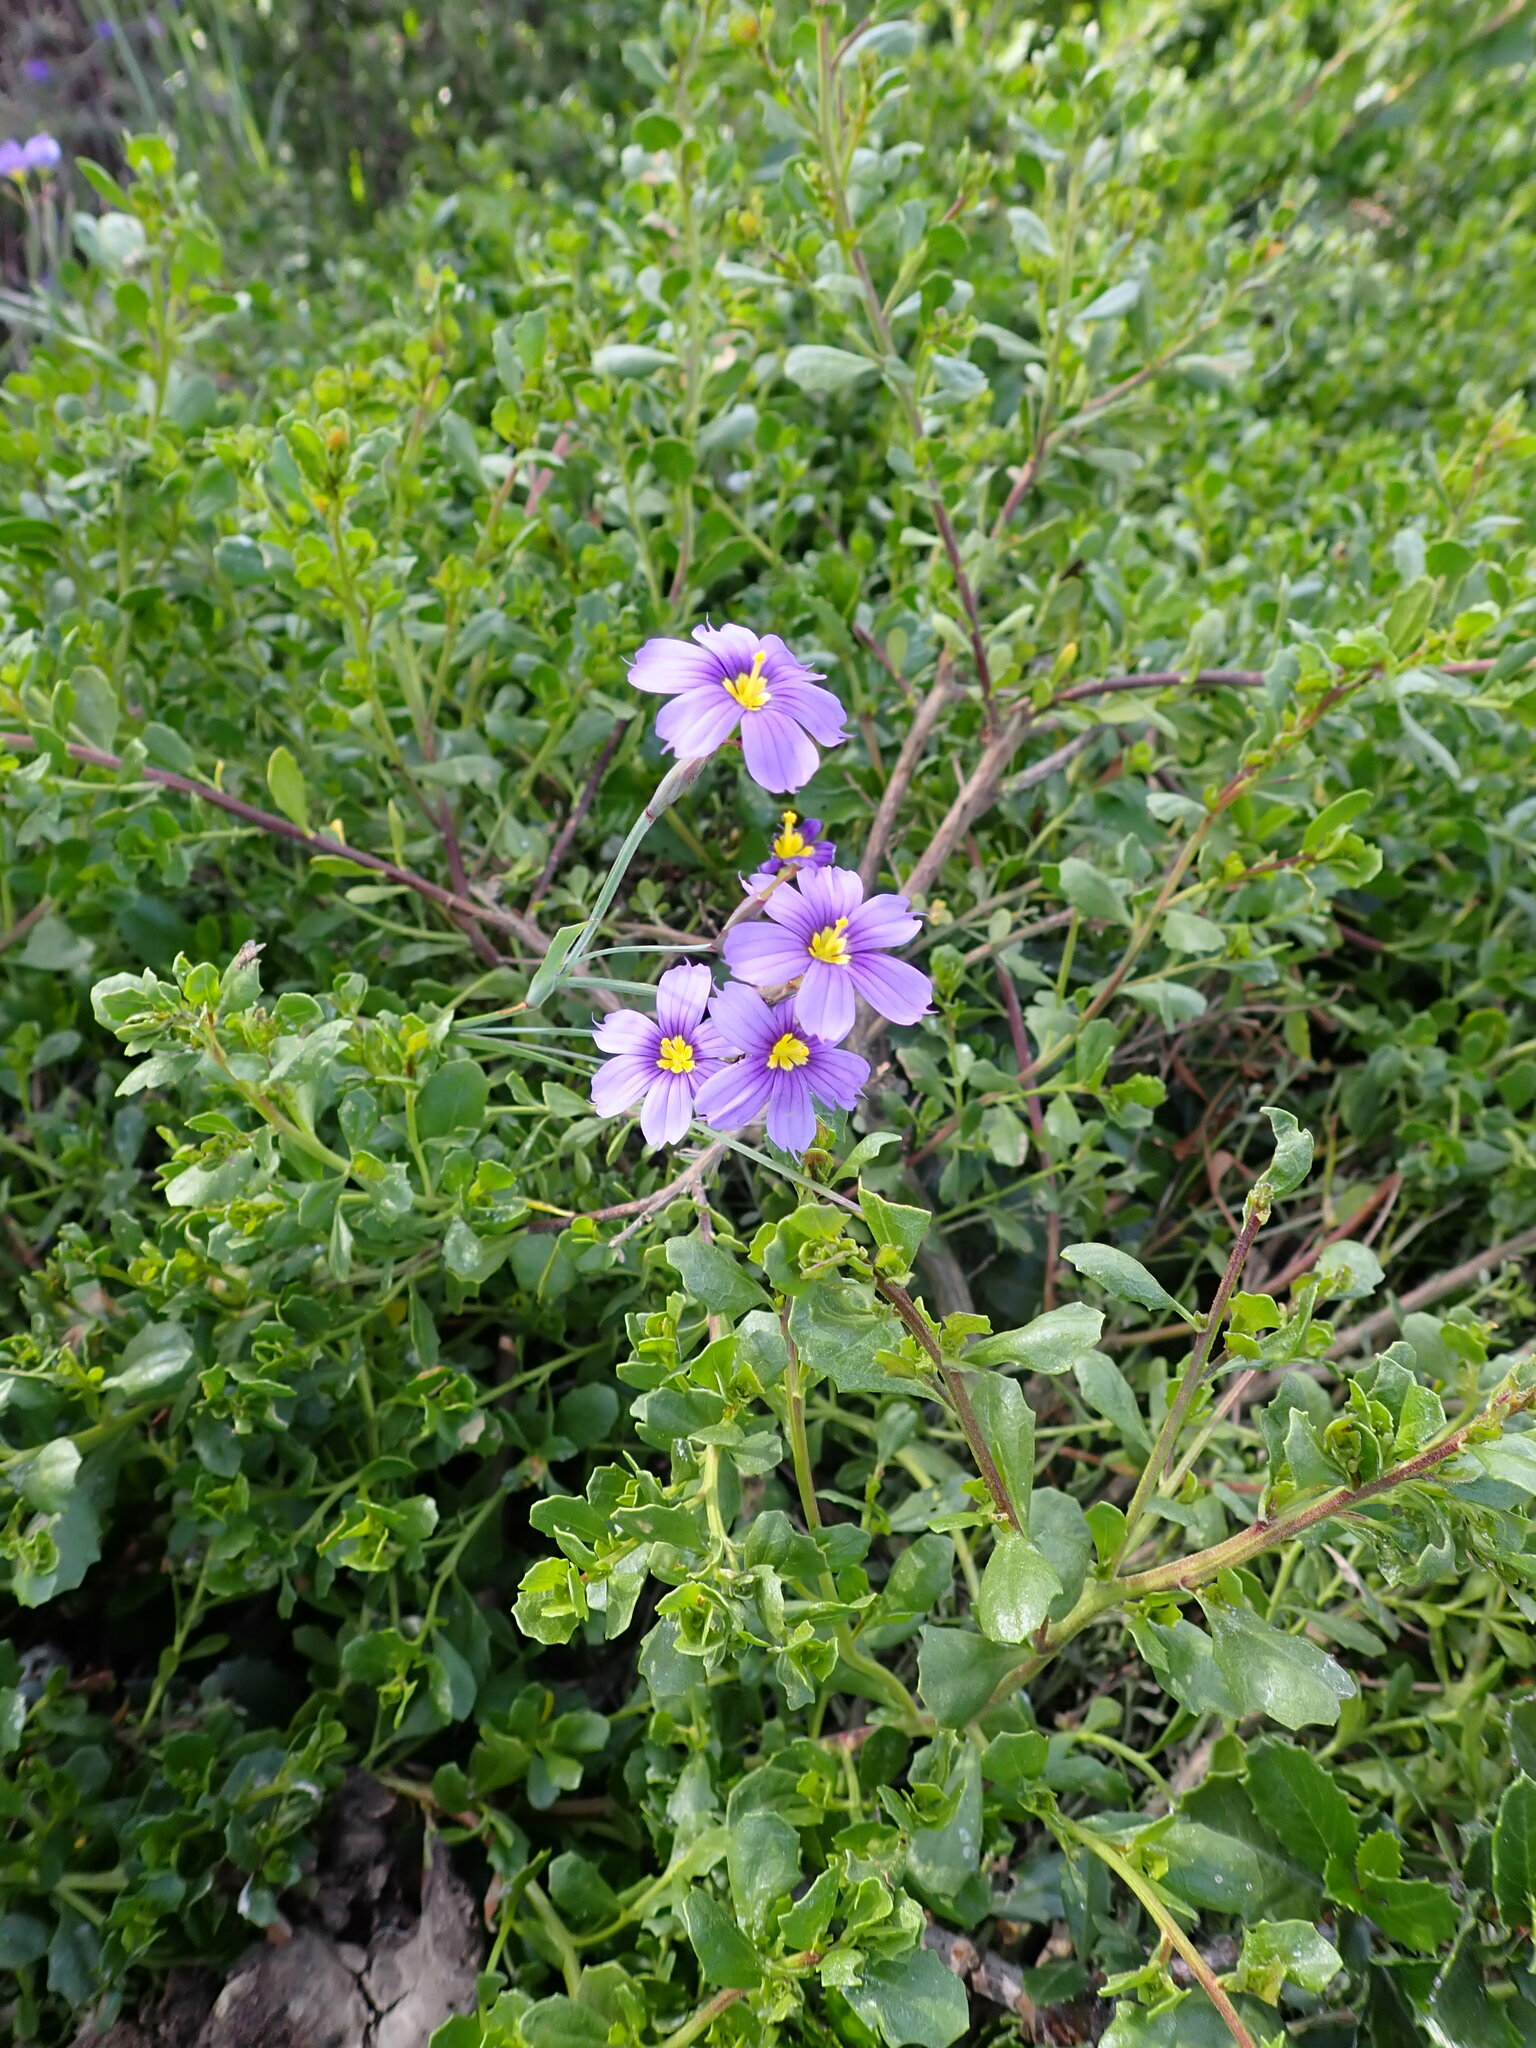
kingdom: Plantae
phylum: Tracheophyta
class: Liliopsida
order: Asparagales
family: Iridaceae
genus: Sisyrinchium
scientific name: Sisyrinchium bellum
